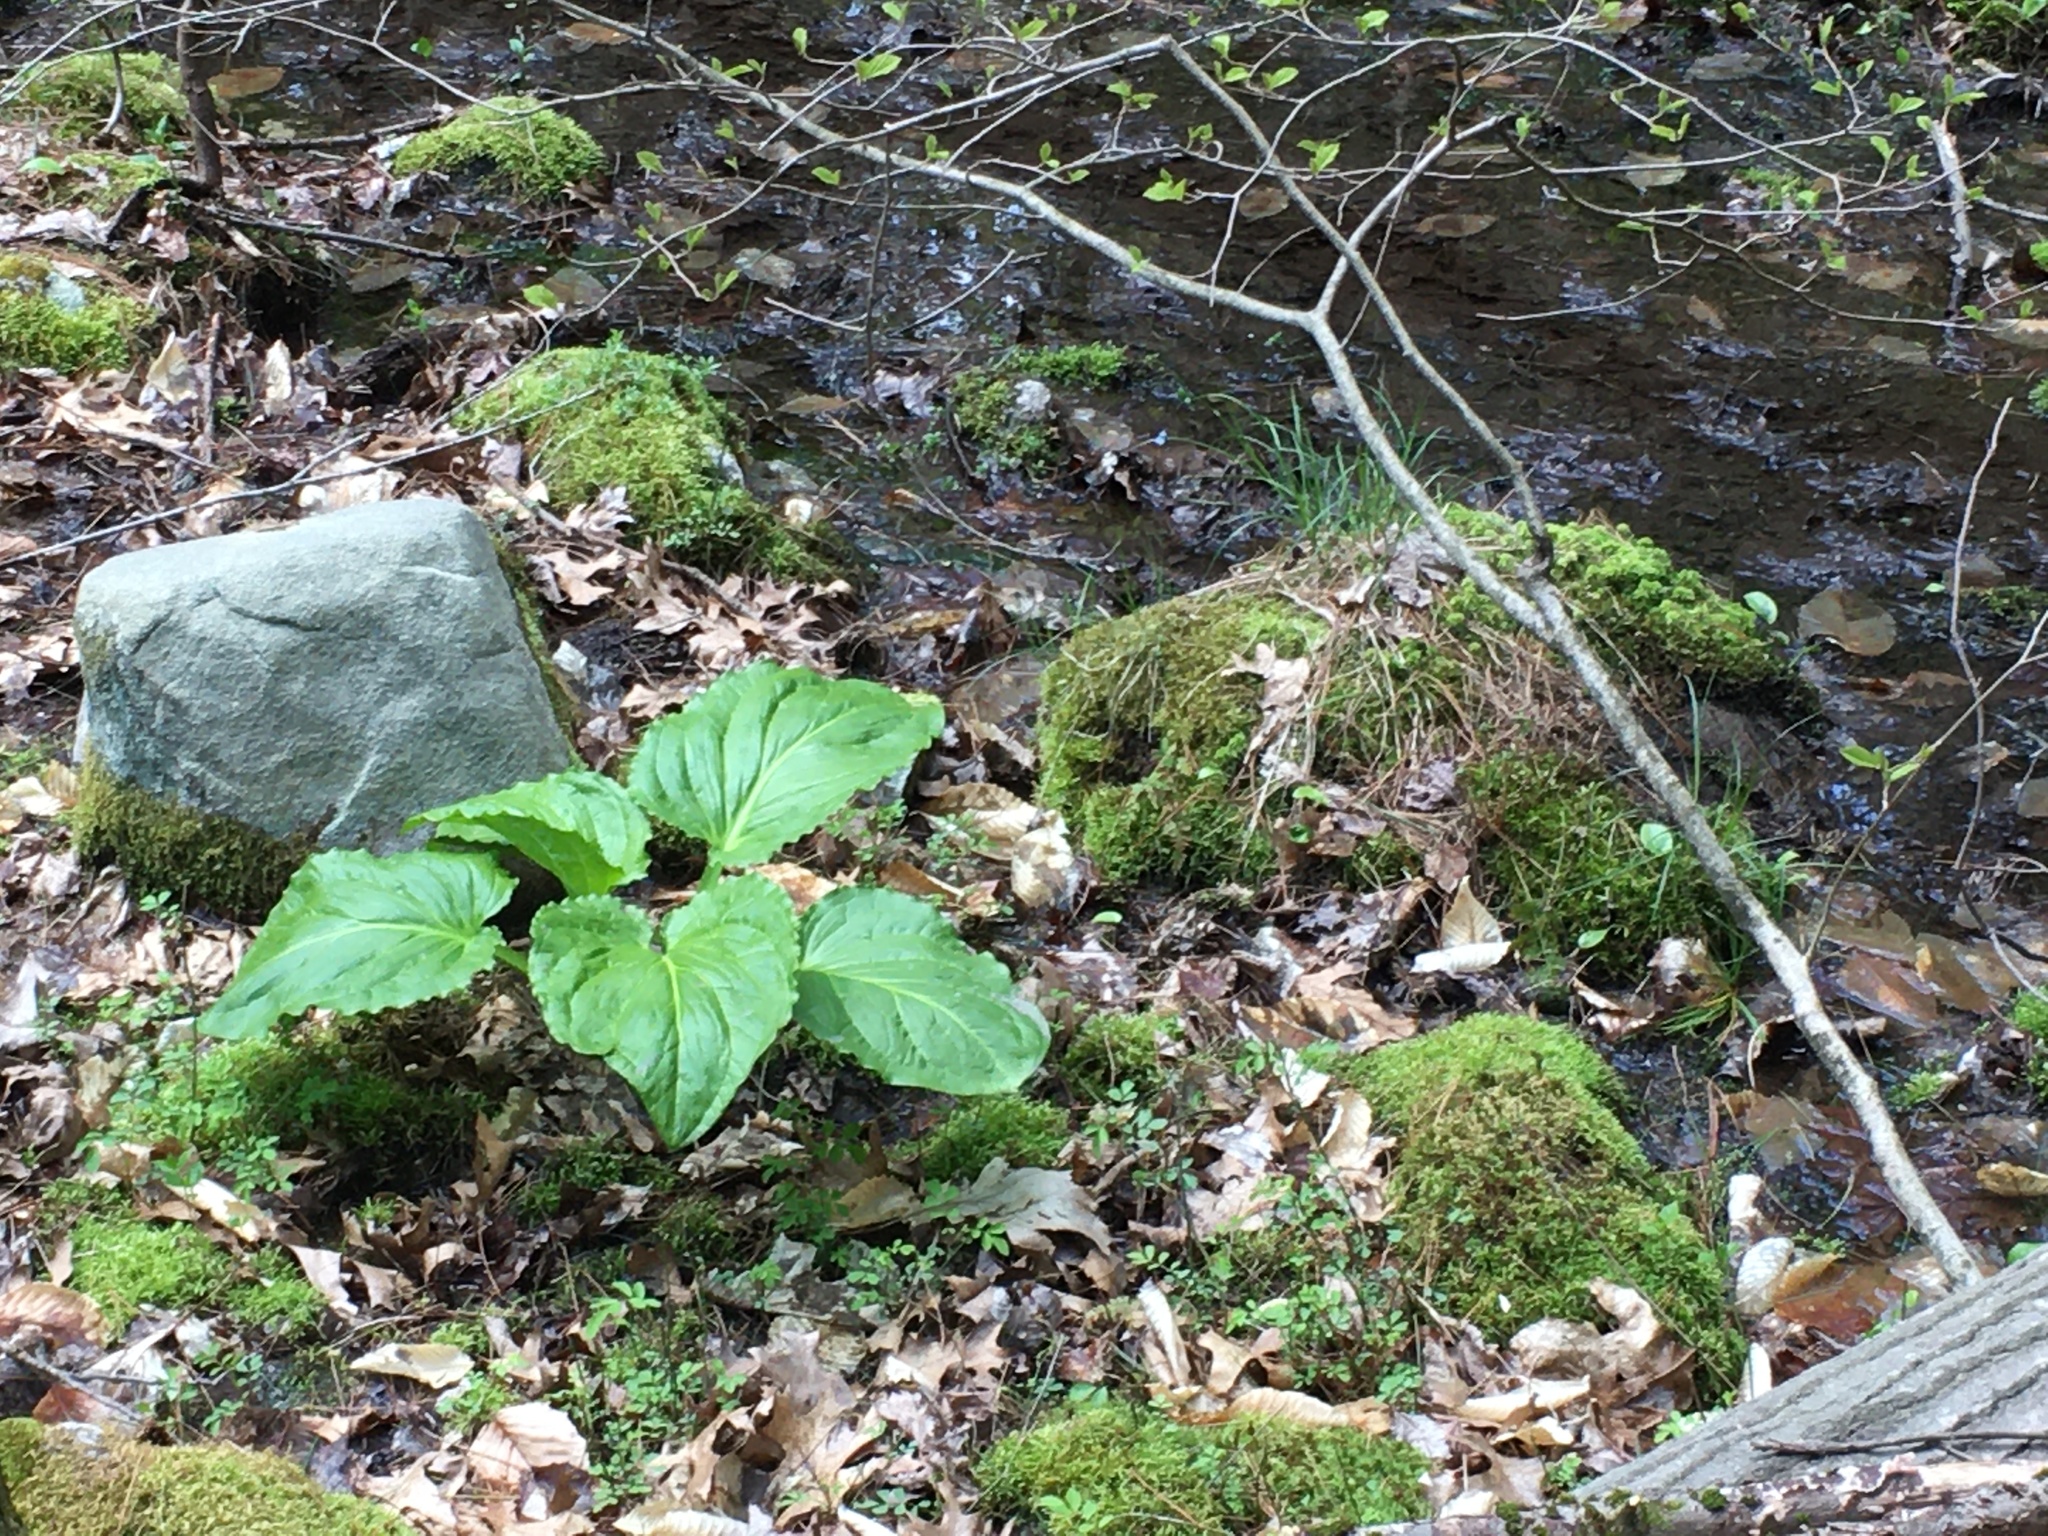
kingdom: Plantae
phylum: Tracheophyta
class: Liliopsida
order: Alismatales
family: Araceae
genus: Symplocarpus
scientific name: Symplocarpus foetidus
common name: Eastern skunk cabbage
